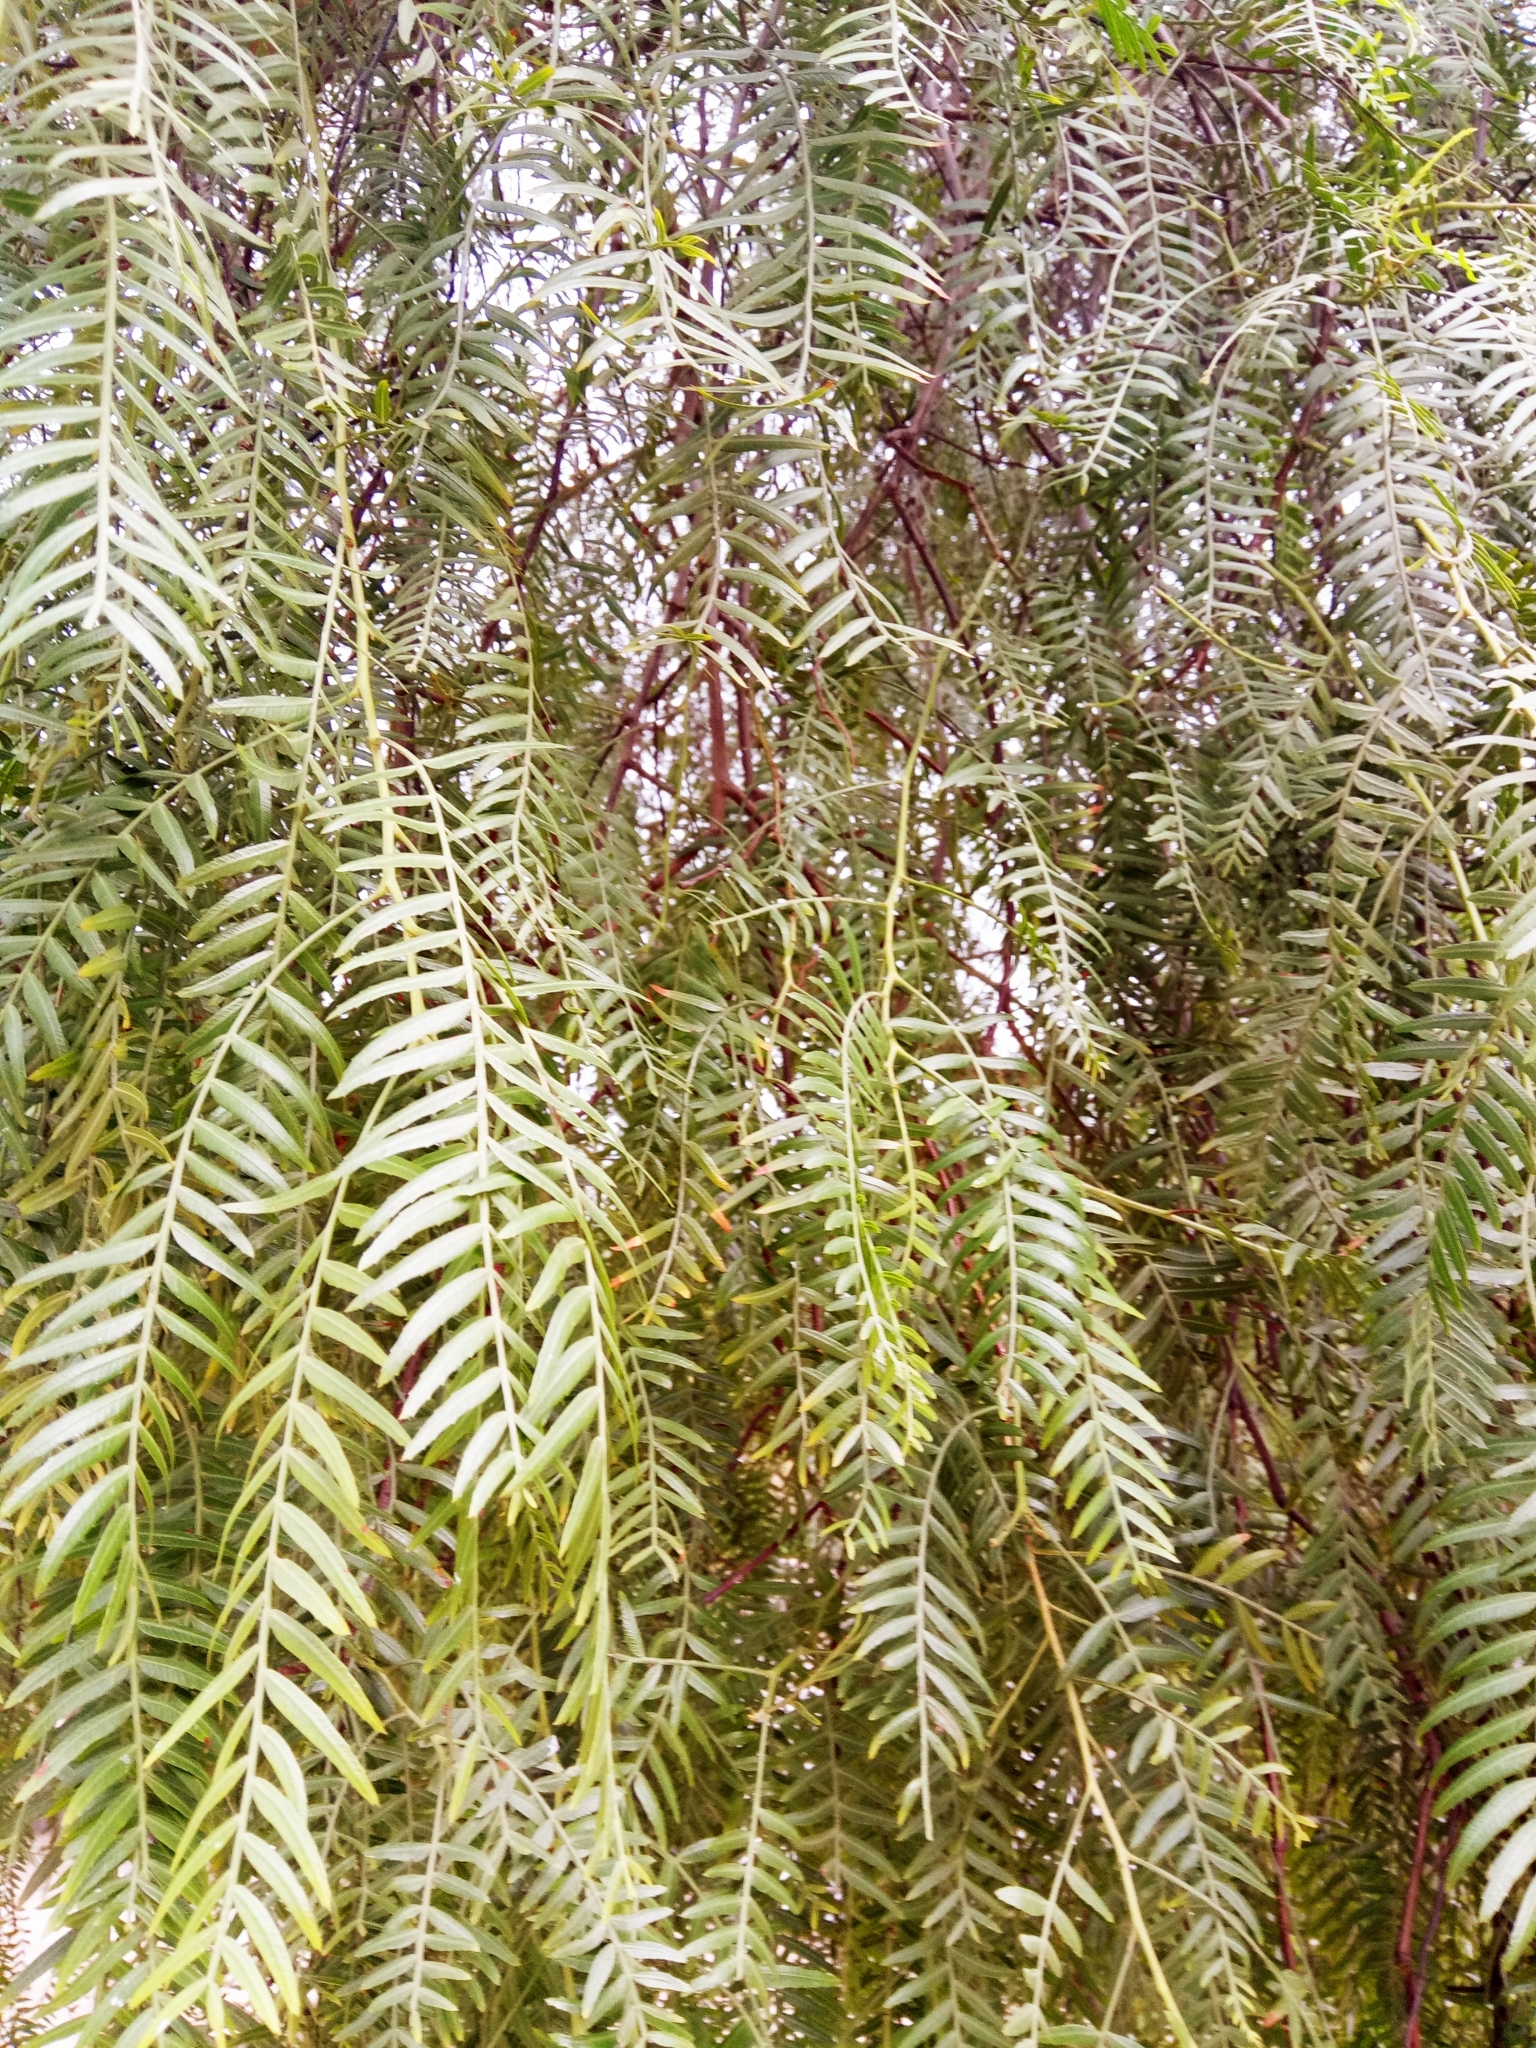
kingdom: Plantae
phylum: Tracheophyta
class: Magnoliopsida
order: Sapindales
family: Anacardiaceae
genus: Schinus
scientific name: Schinus molle
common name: Peruvian peppertree
